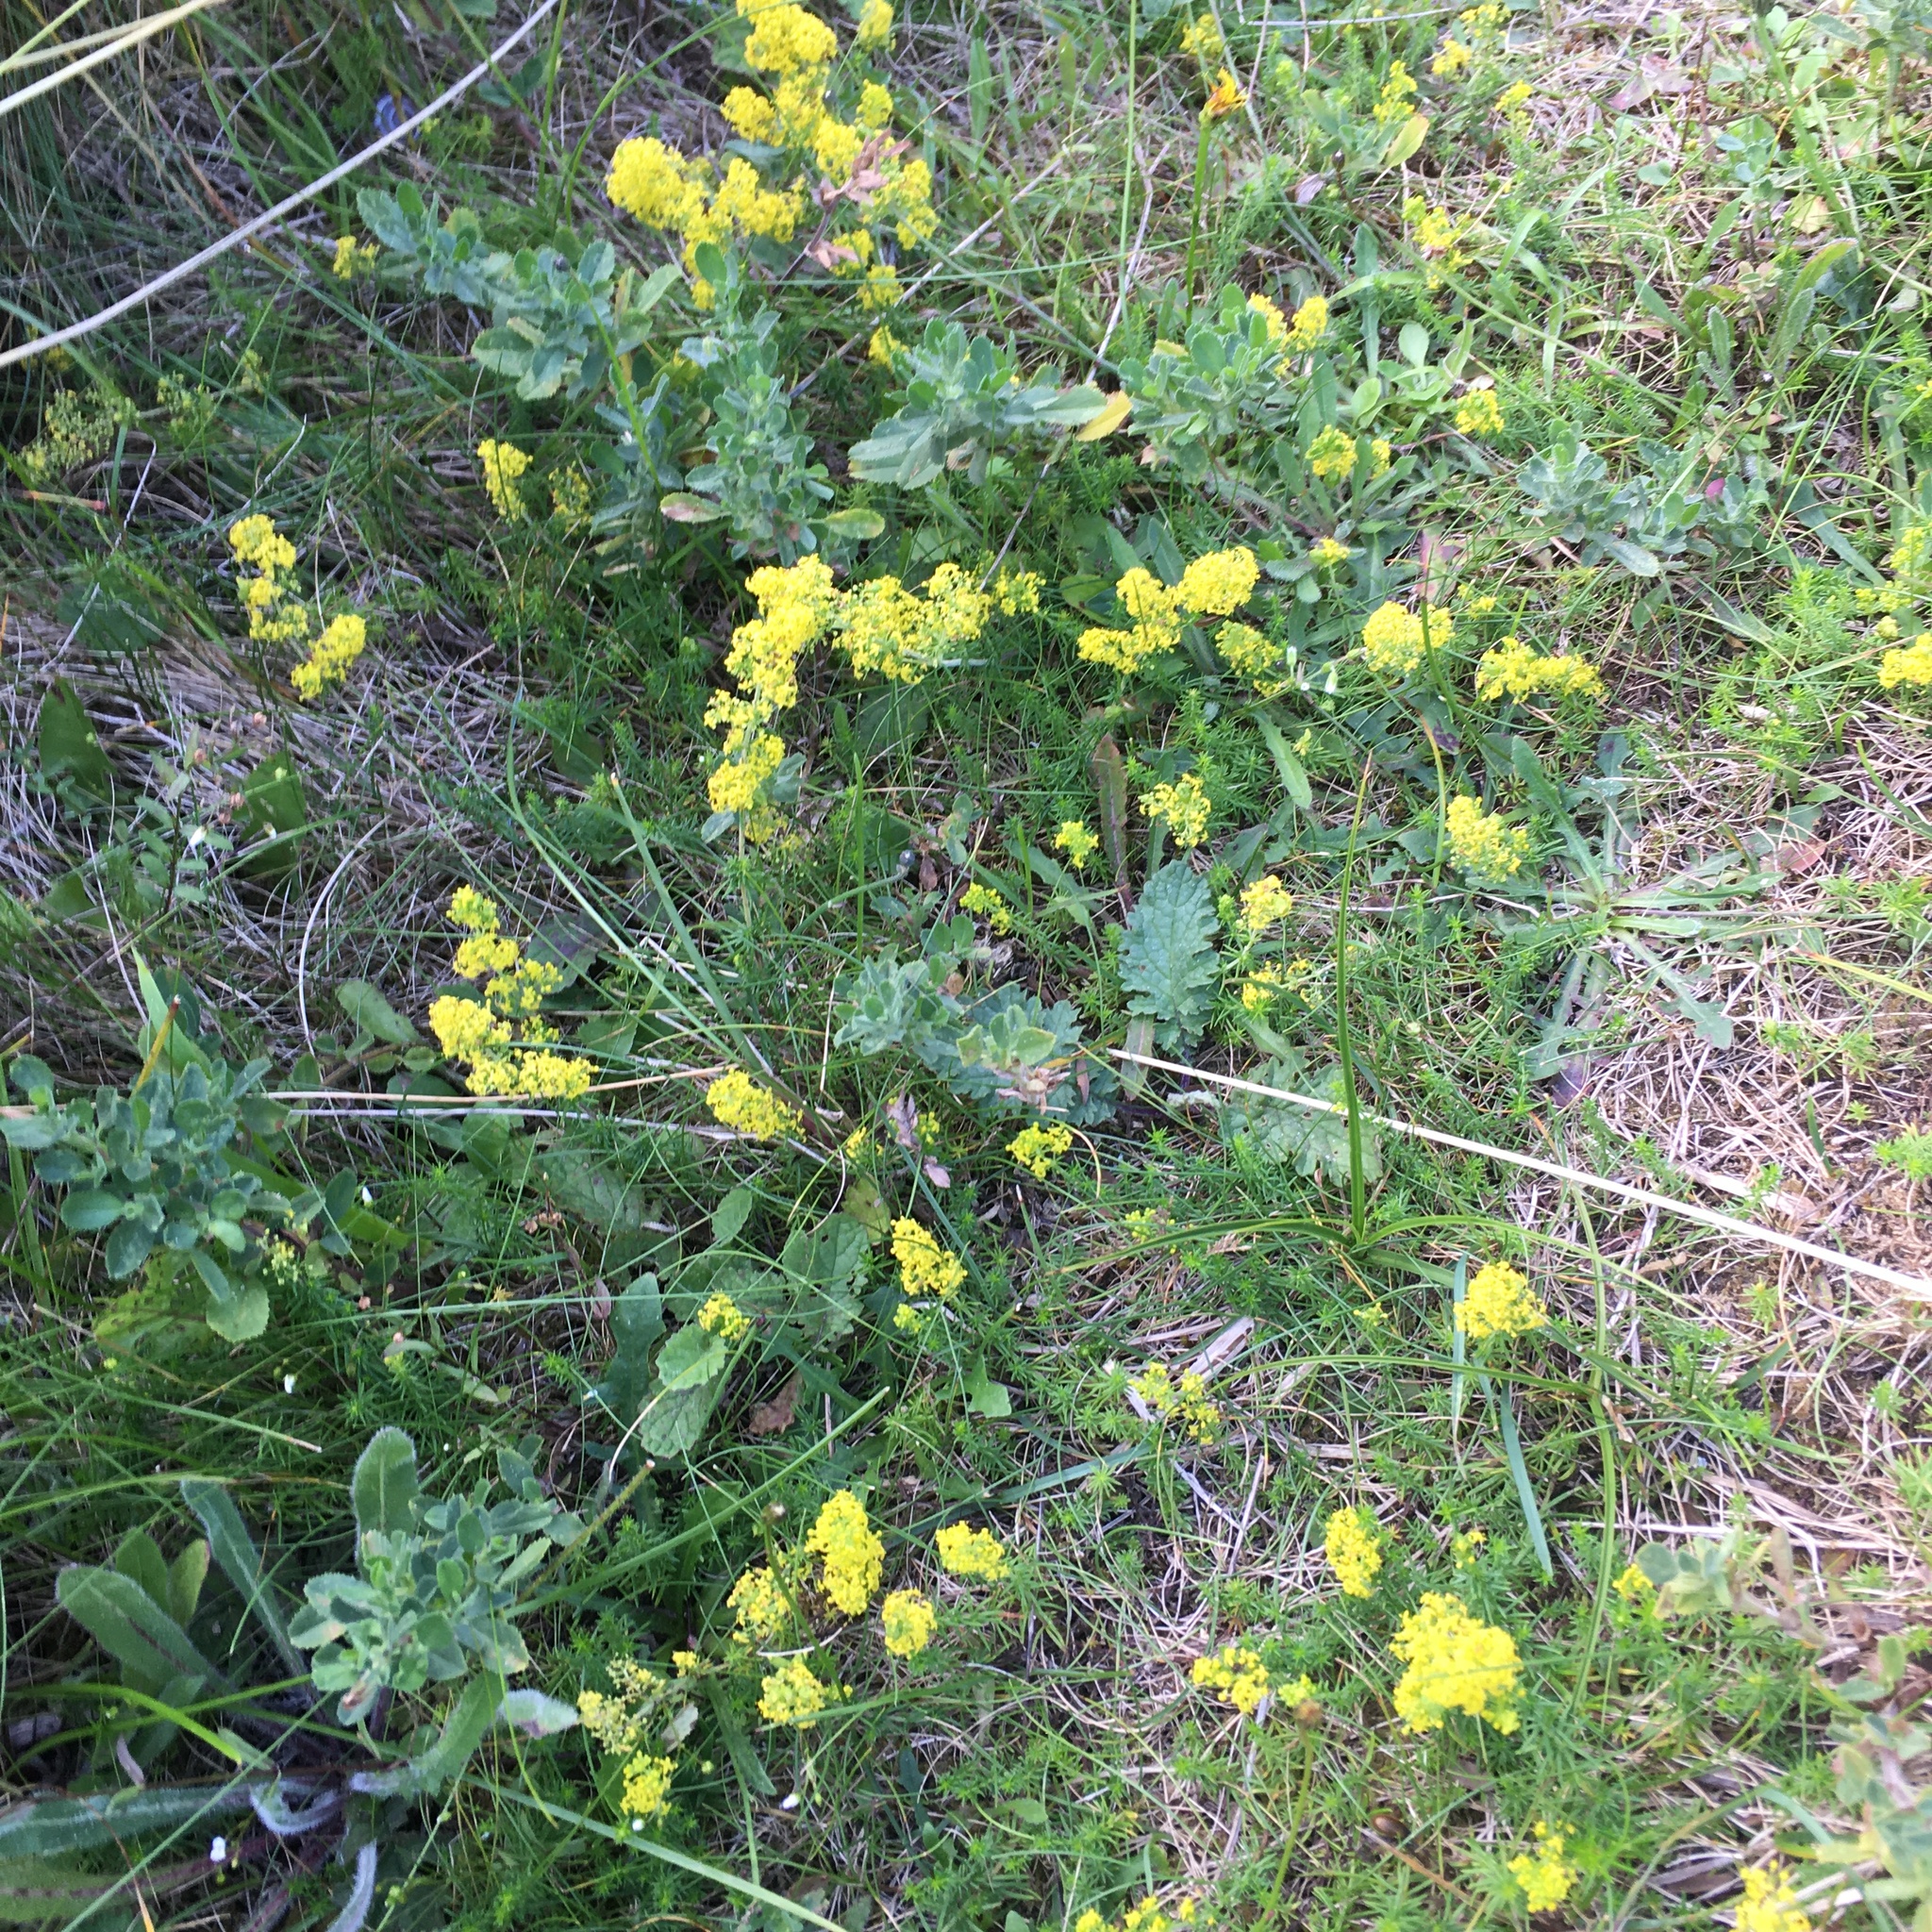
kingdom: Plantae
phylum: Tracheophyta
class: Magnoliopsida
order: Gentianales
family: Rubiaceae
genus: Galium
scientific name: Galium verum
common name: Lady's bedstraw
